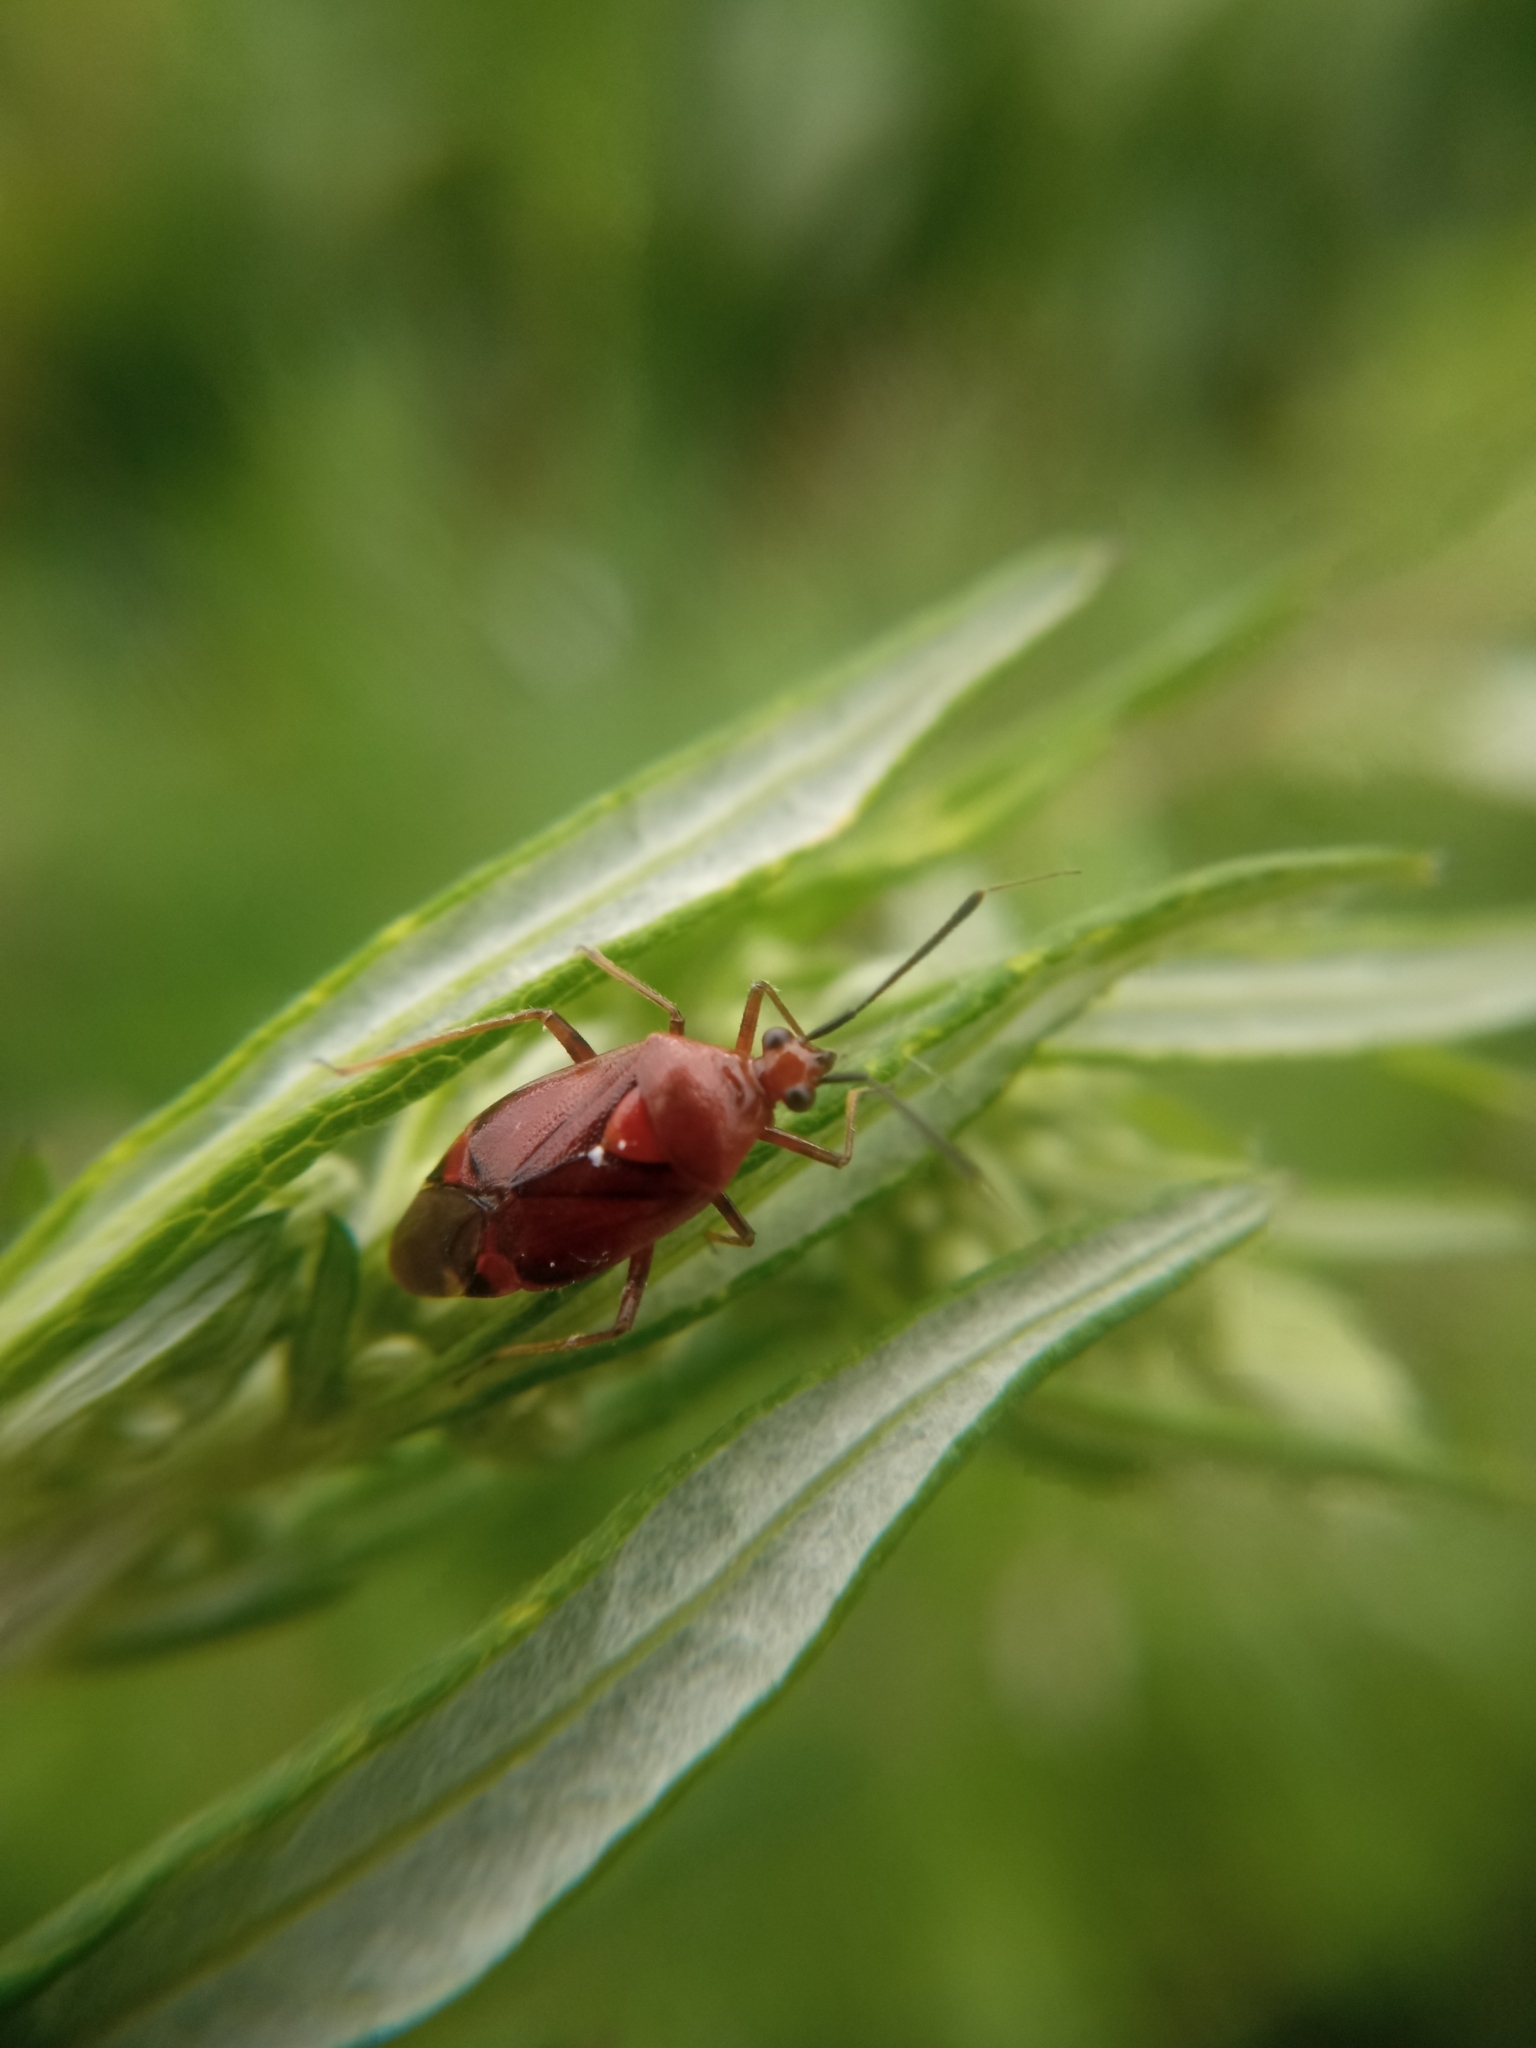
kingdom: Animalia
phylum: Arthropoda
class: Insecta
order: Hemiptera
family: Miridae
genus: Deraeocoris
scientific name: Deraeocoris ruber
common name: Plant bug
